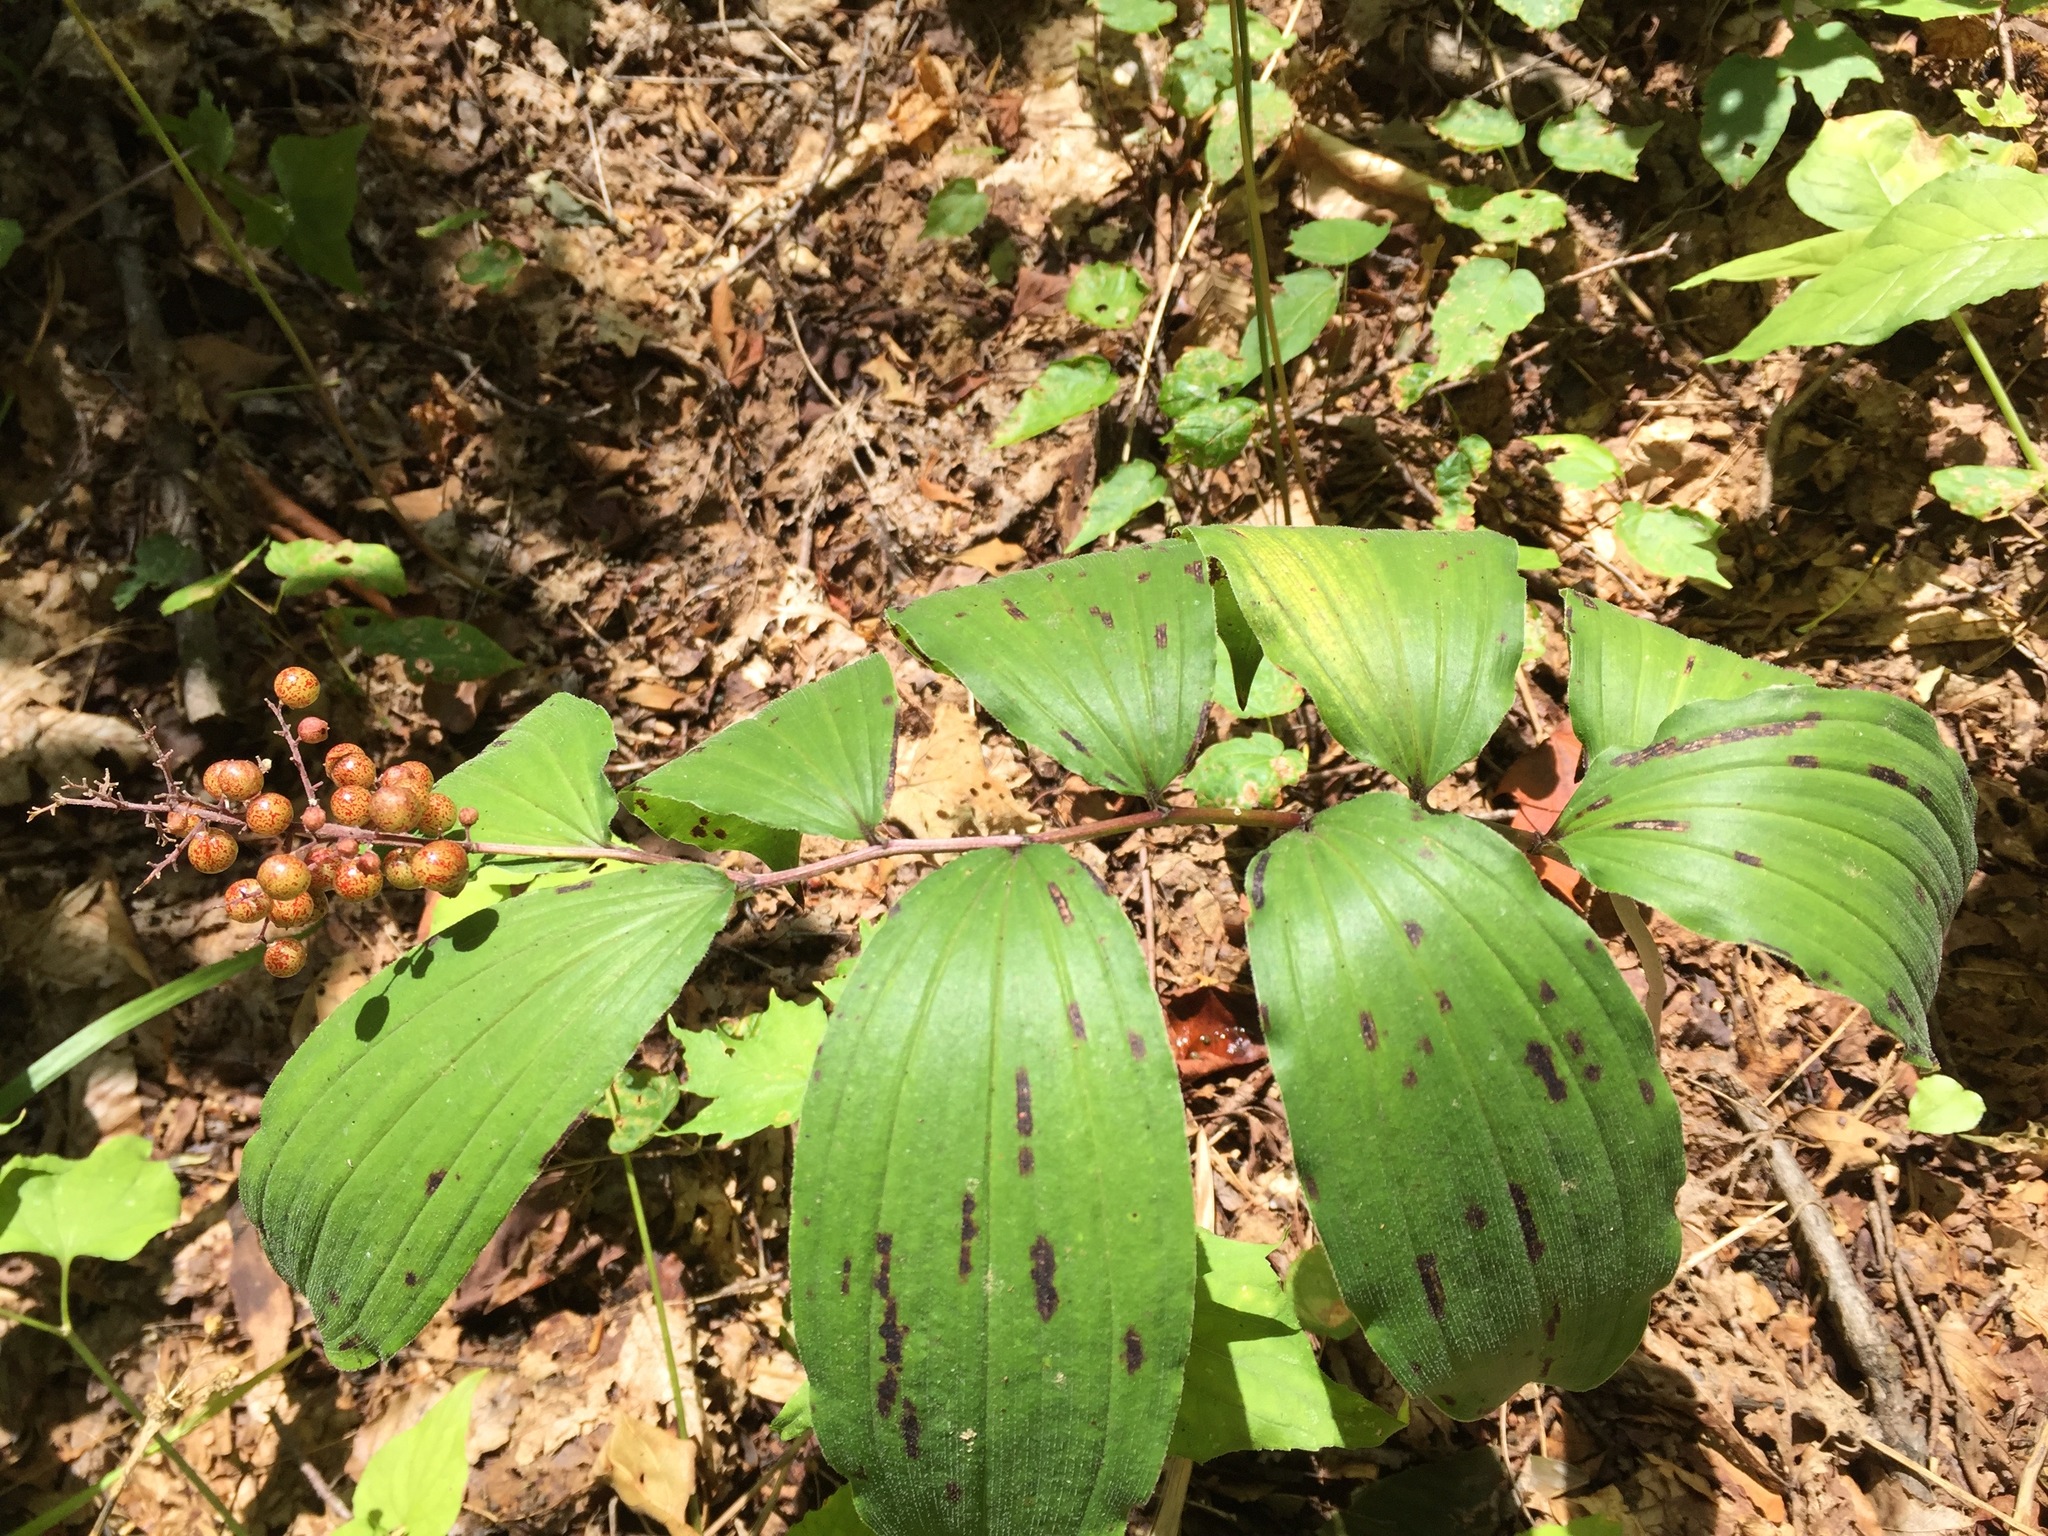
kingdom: Plantae
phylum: Tracheophyta
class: Liliopsida
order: Asparagales
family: Asparagaceae
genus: Maianthemum
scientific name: Maianthemum racemosum
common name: False spikenard
